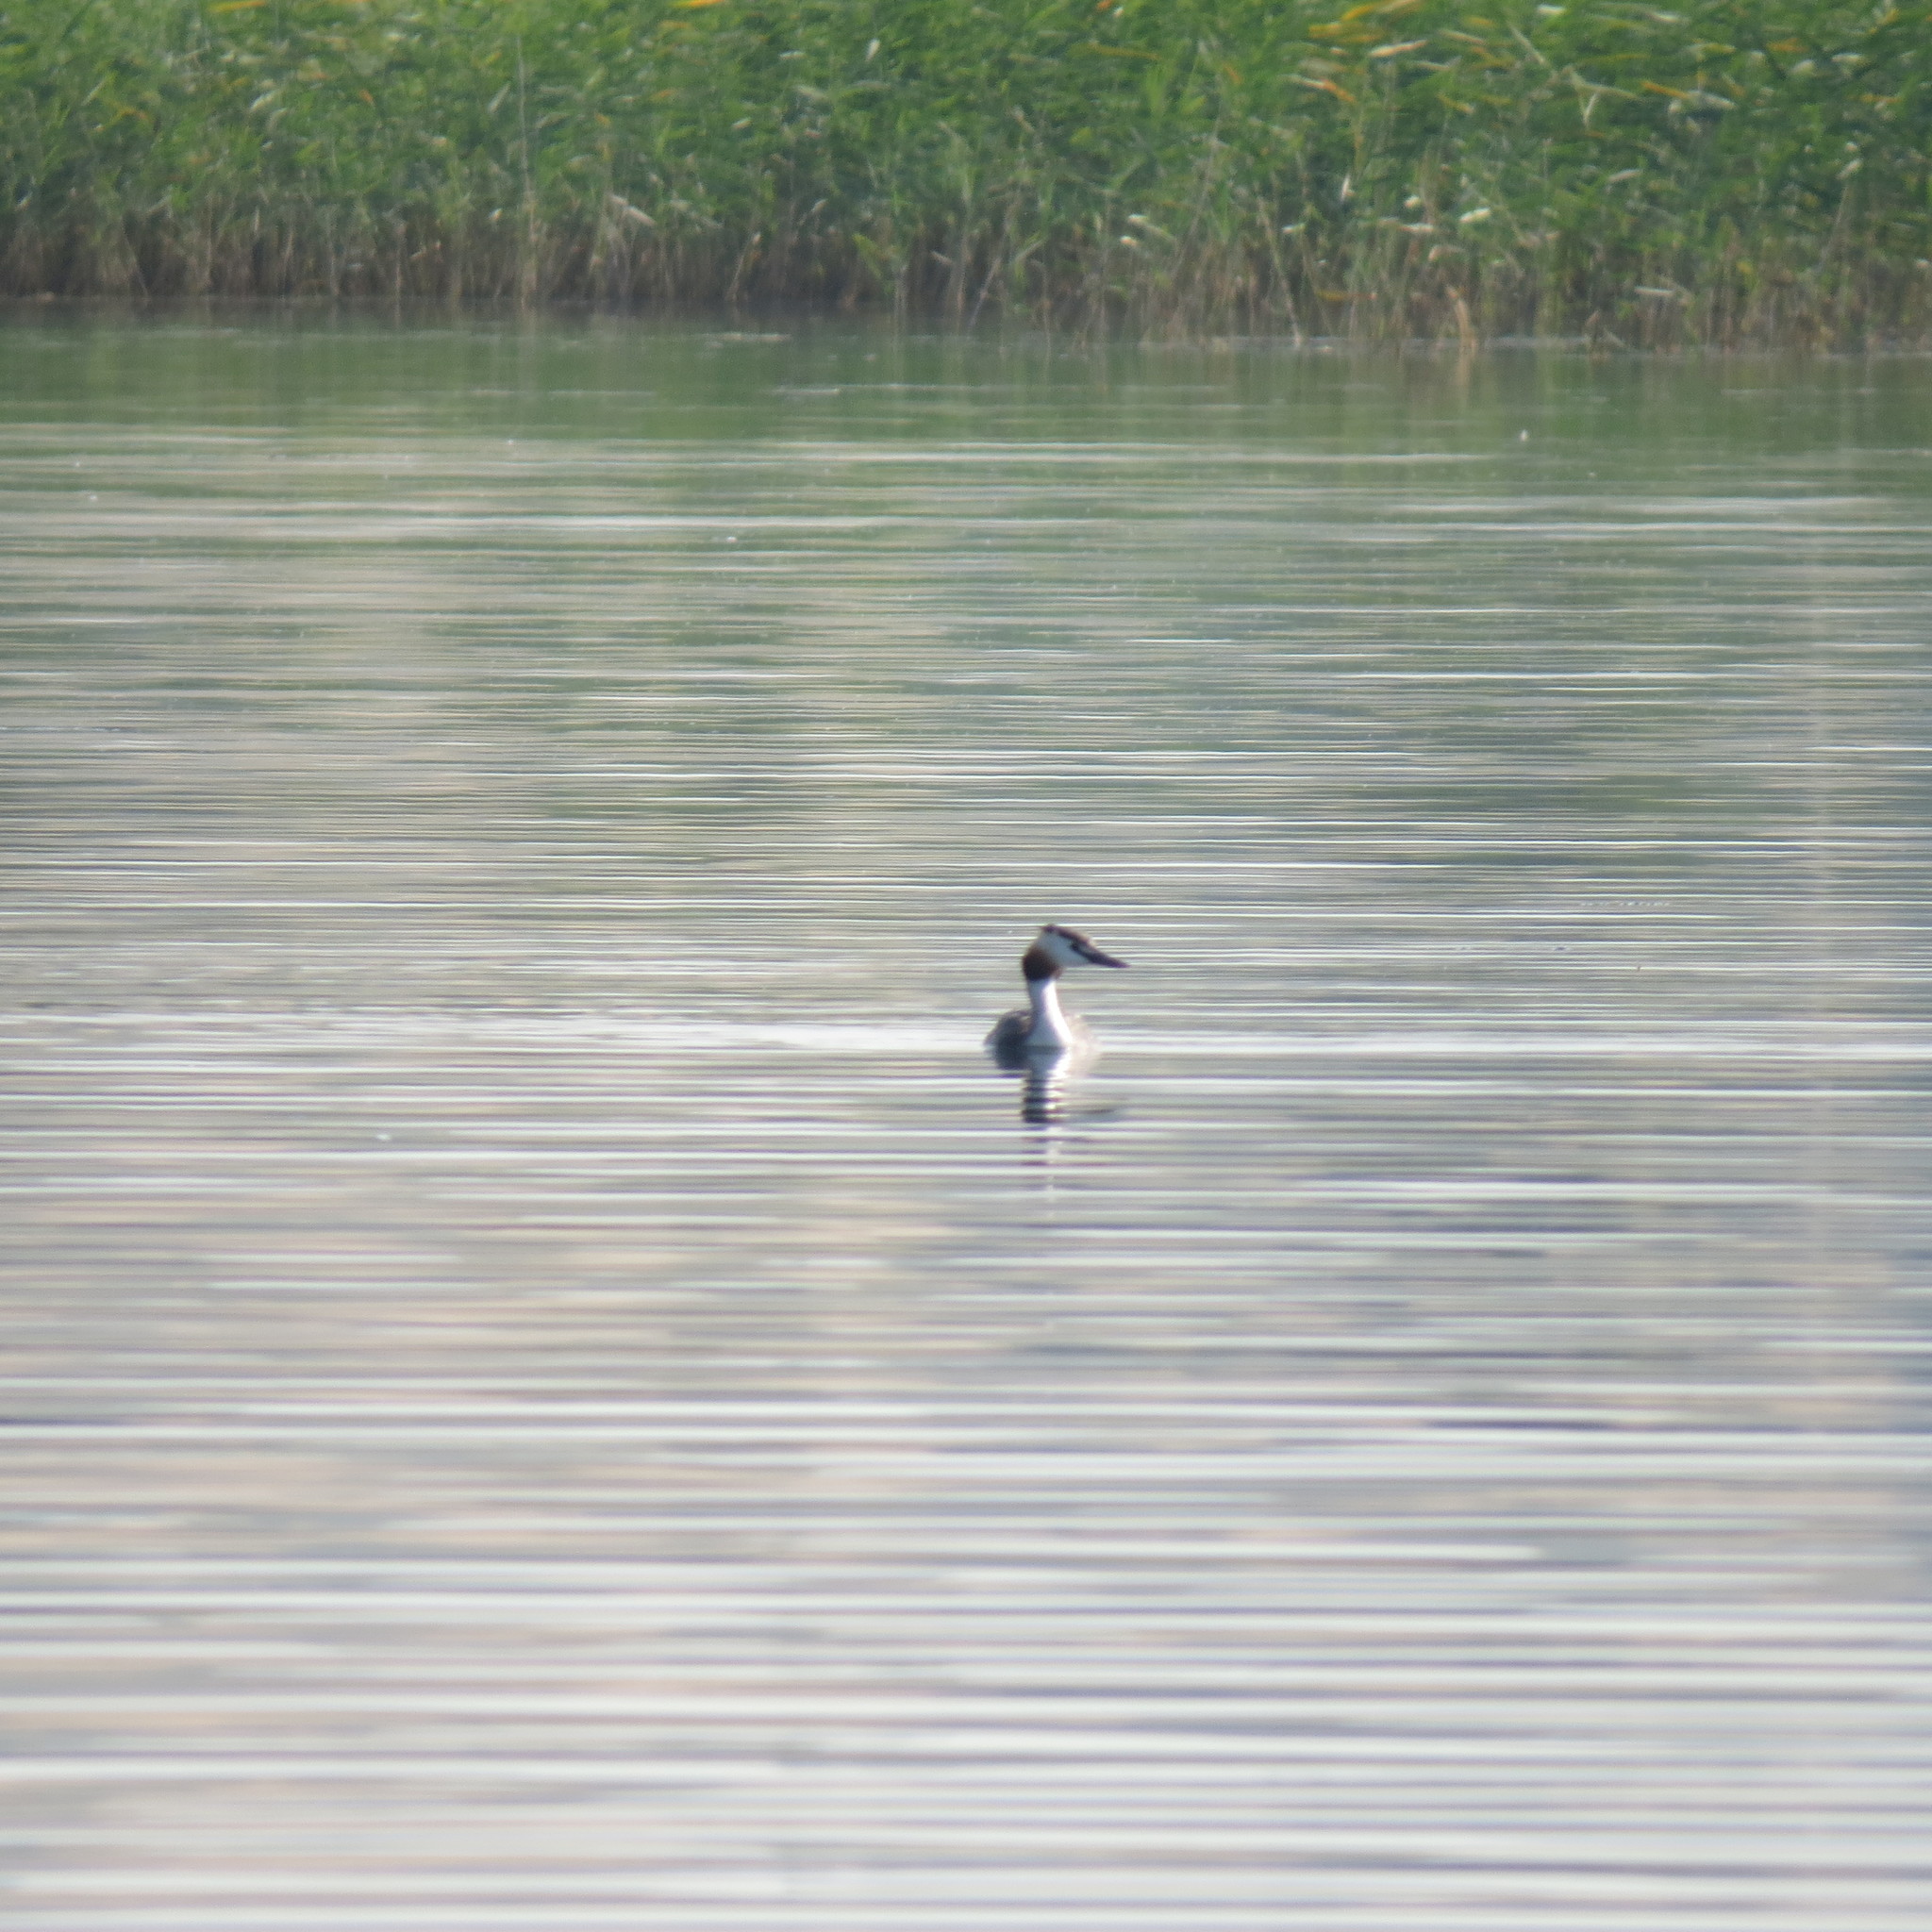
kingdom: Animalia
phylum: Chordata
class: Aves
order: Podicipediformes
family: Podicipedidae
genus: Podiceps
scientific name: Podiceps cristatus
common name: Great crested grebe
